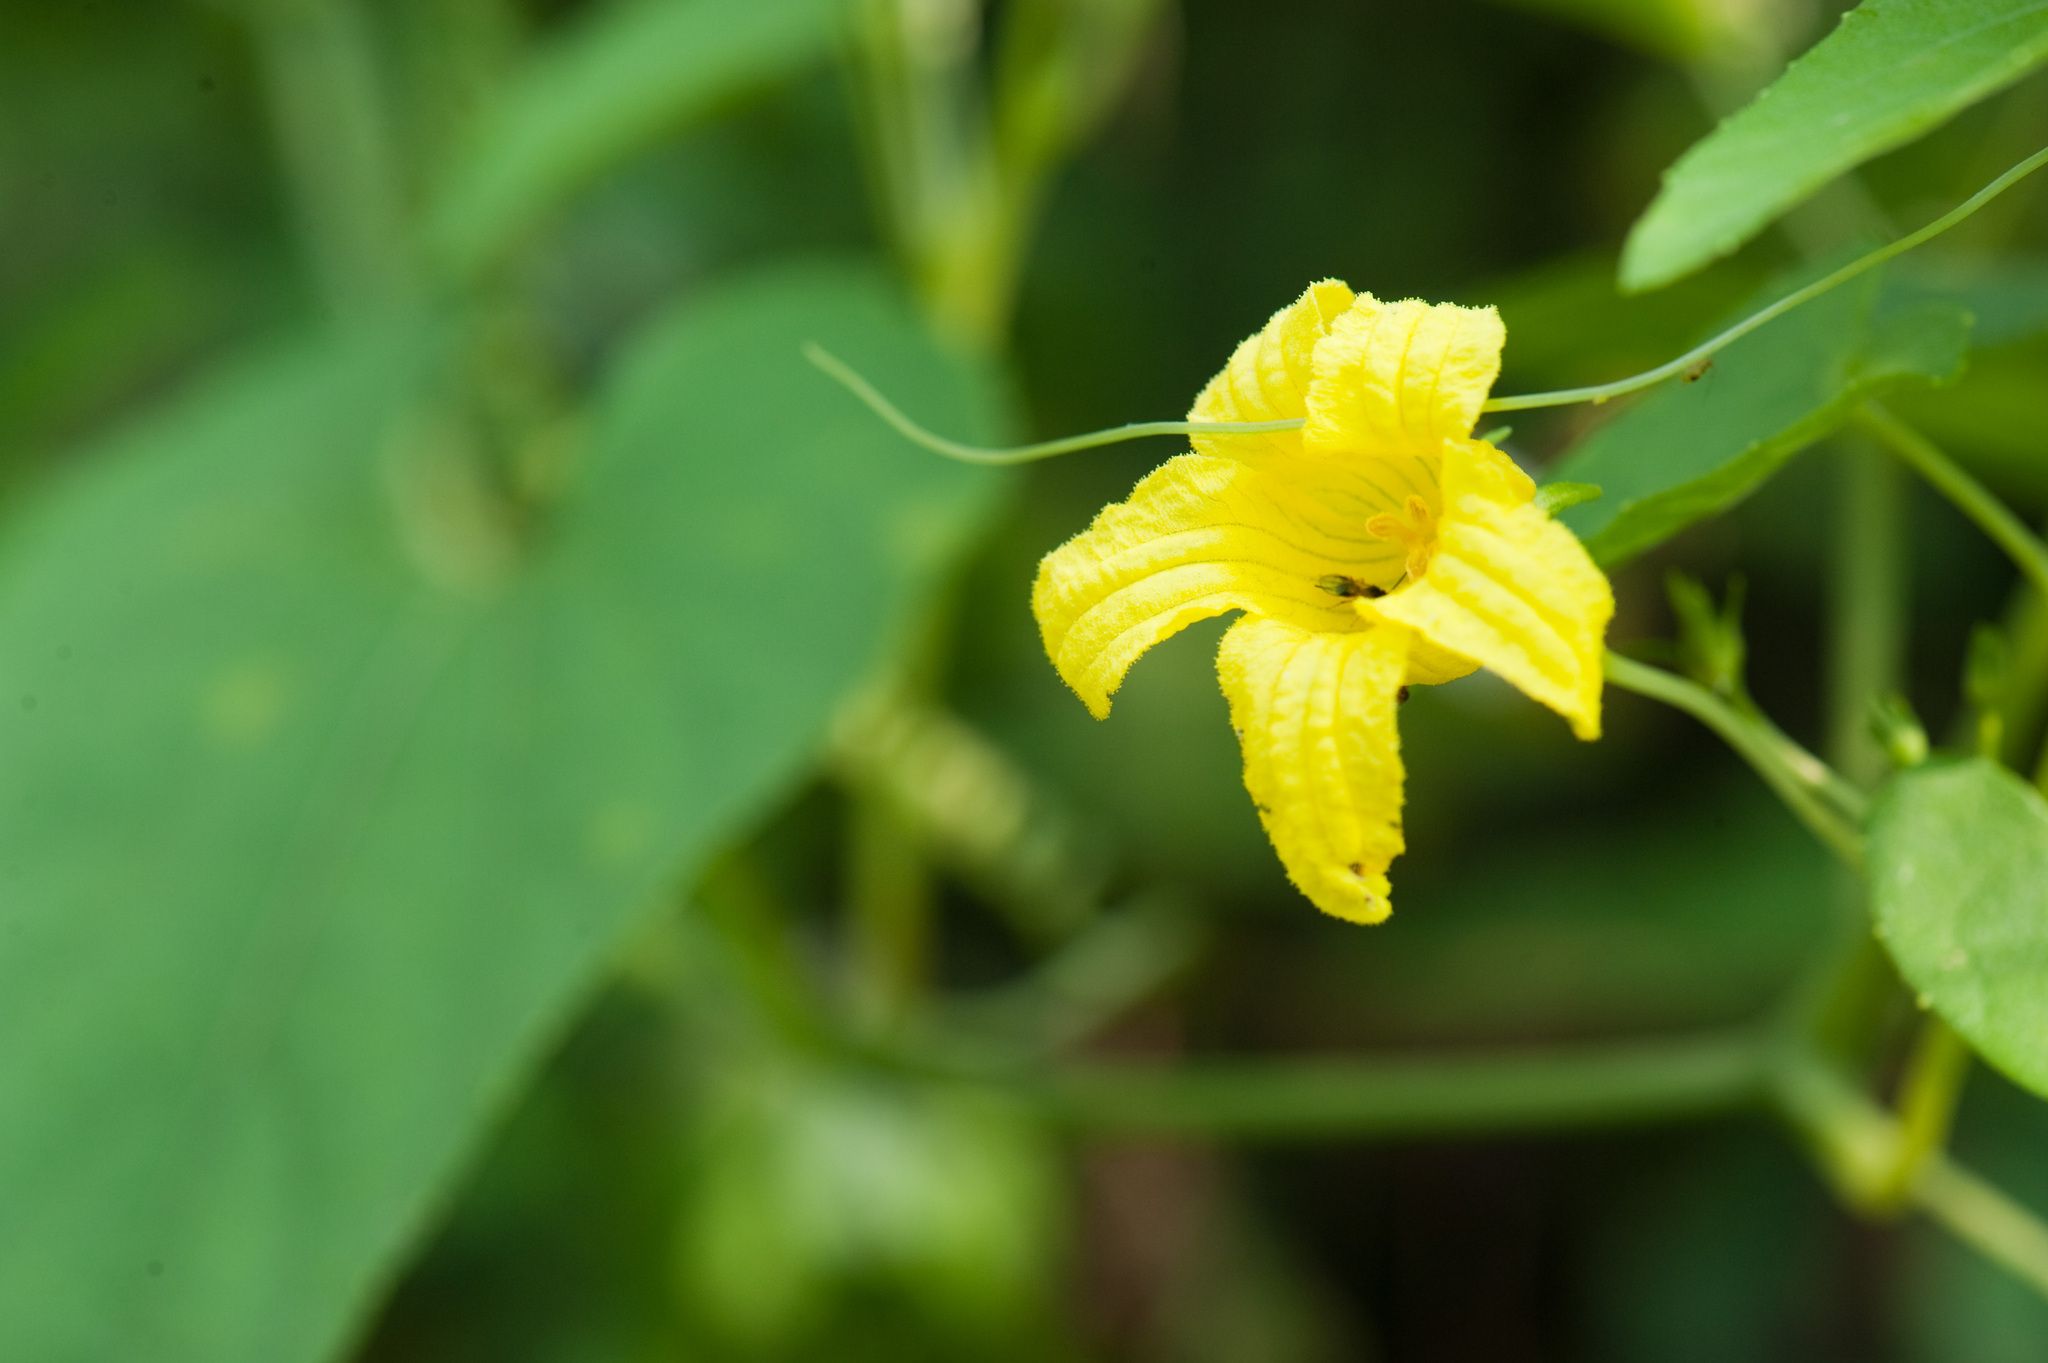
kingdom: Plantae
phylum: Tracheophyta
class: Magnoliopsida
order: Cucurbitales
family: Cucurbitaceae
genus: Thladiantha
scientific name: Thladiantha punctata
